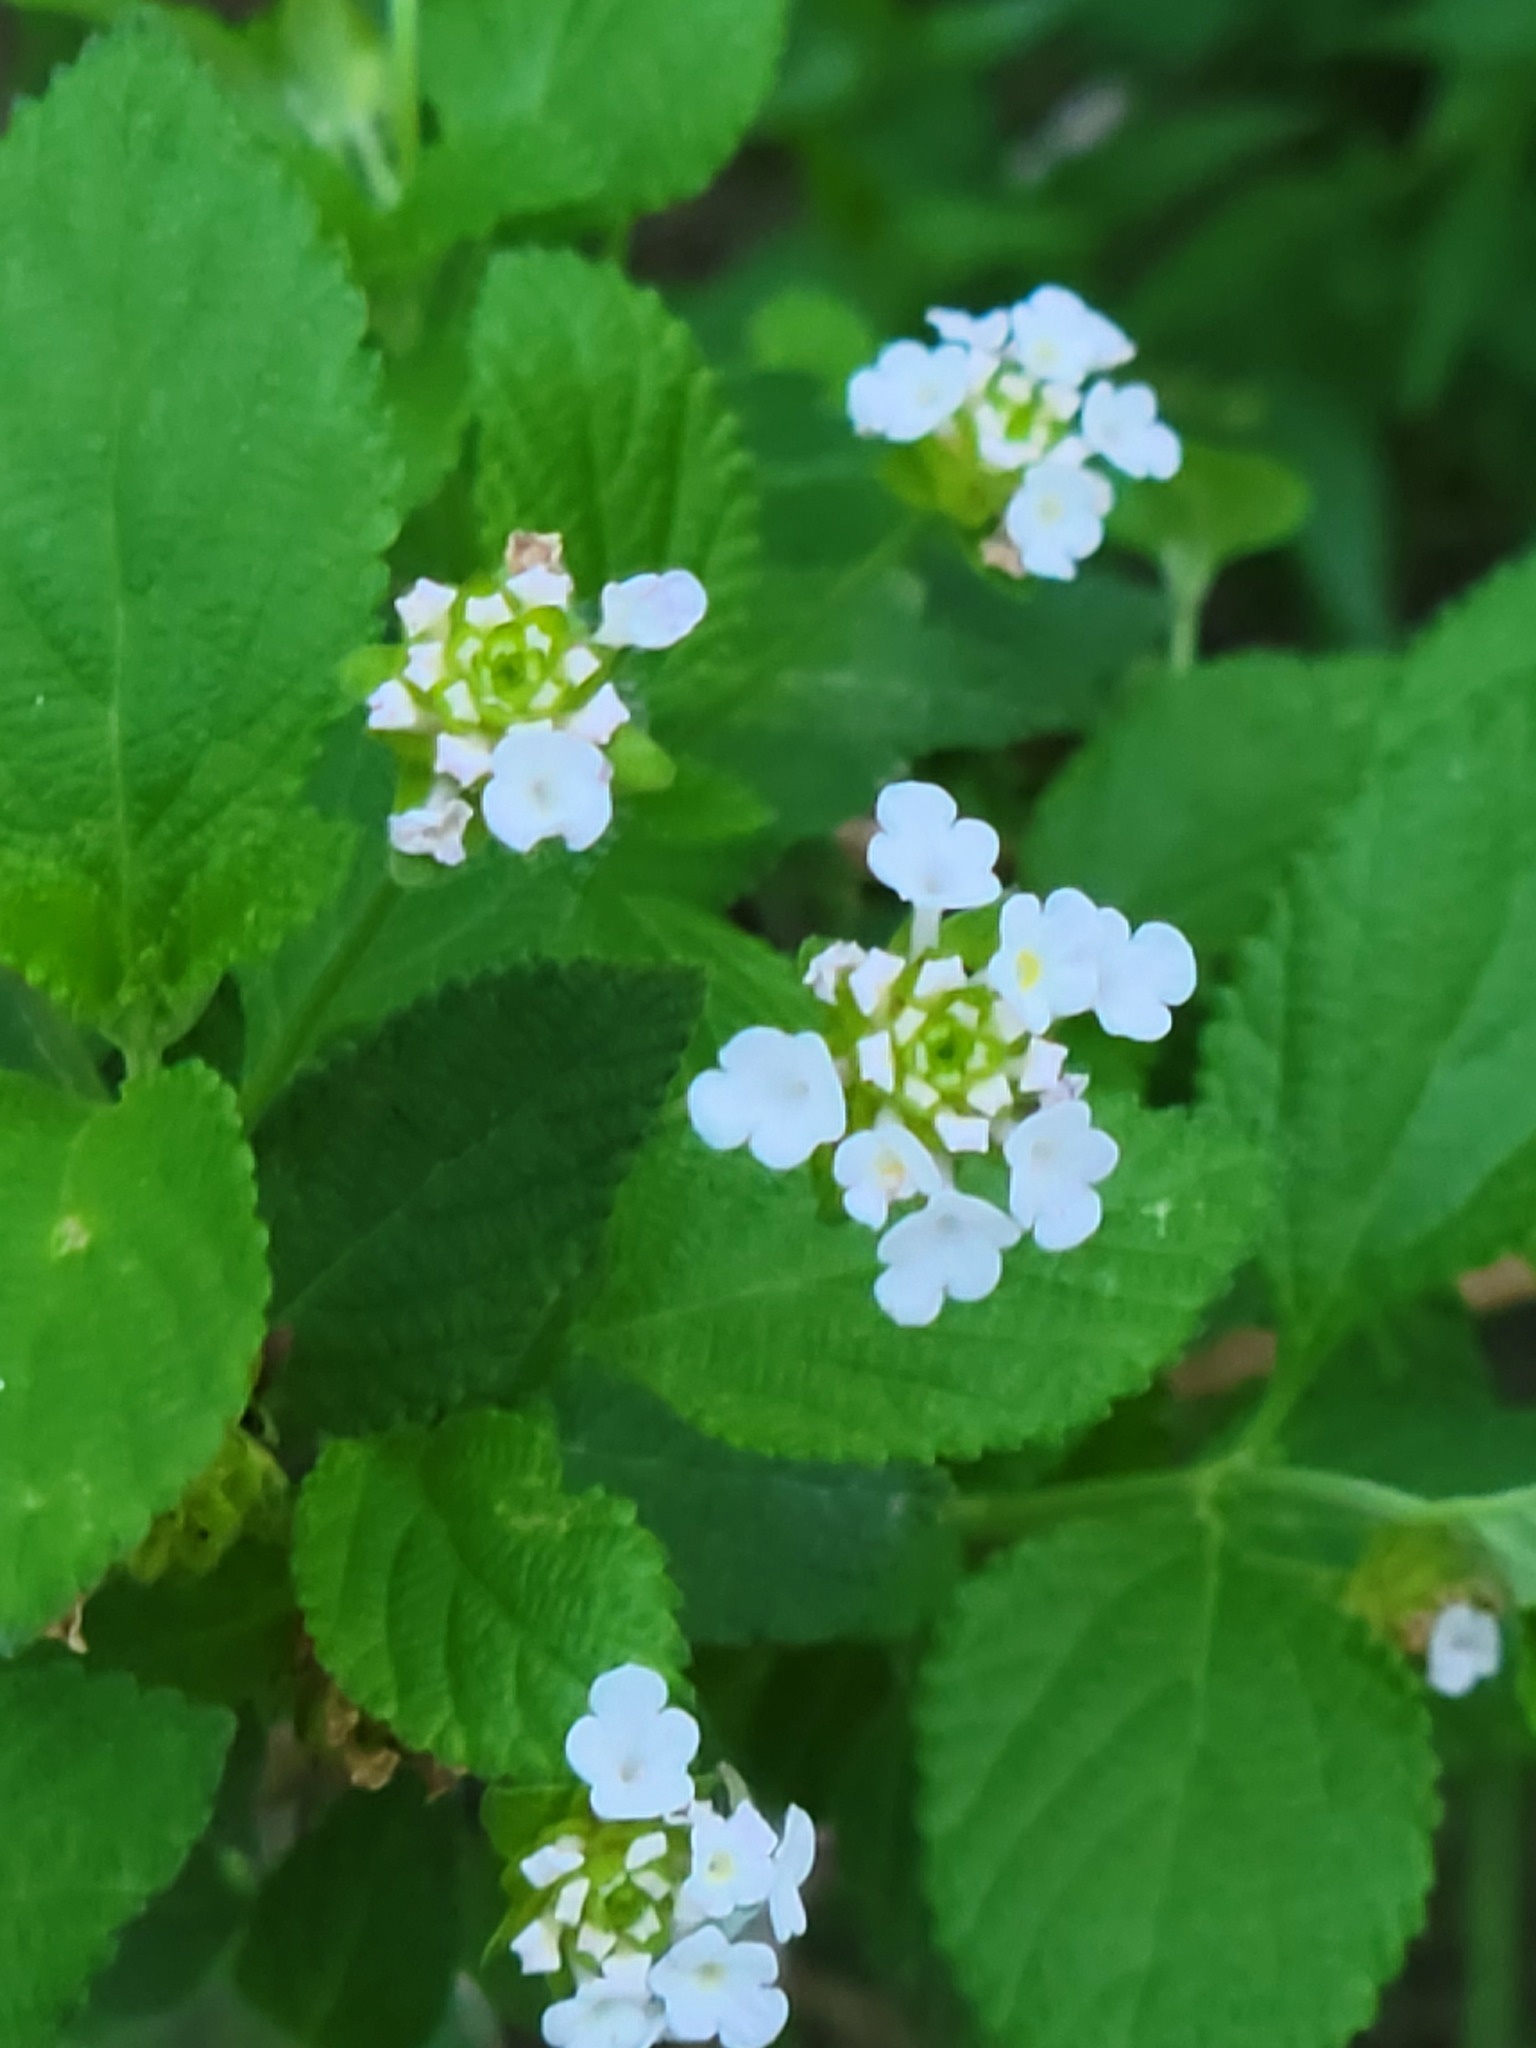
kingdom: Plantae
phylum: Tracheophyta
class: Magnoliopsida
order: Lamiales
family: Verbenaceae
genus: Lantana
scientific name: Lantana velutina
